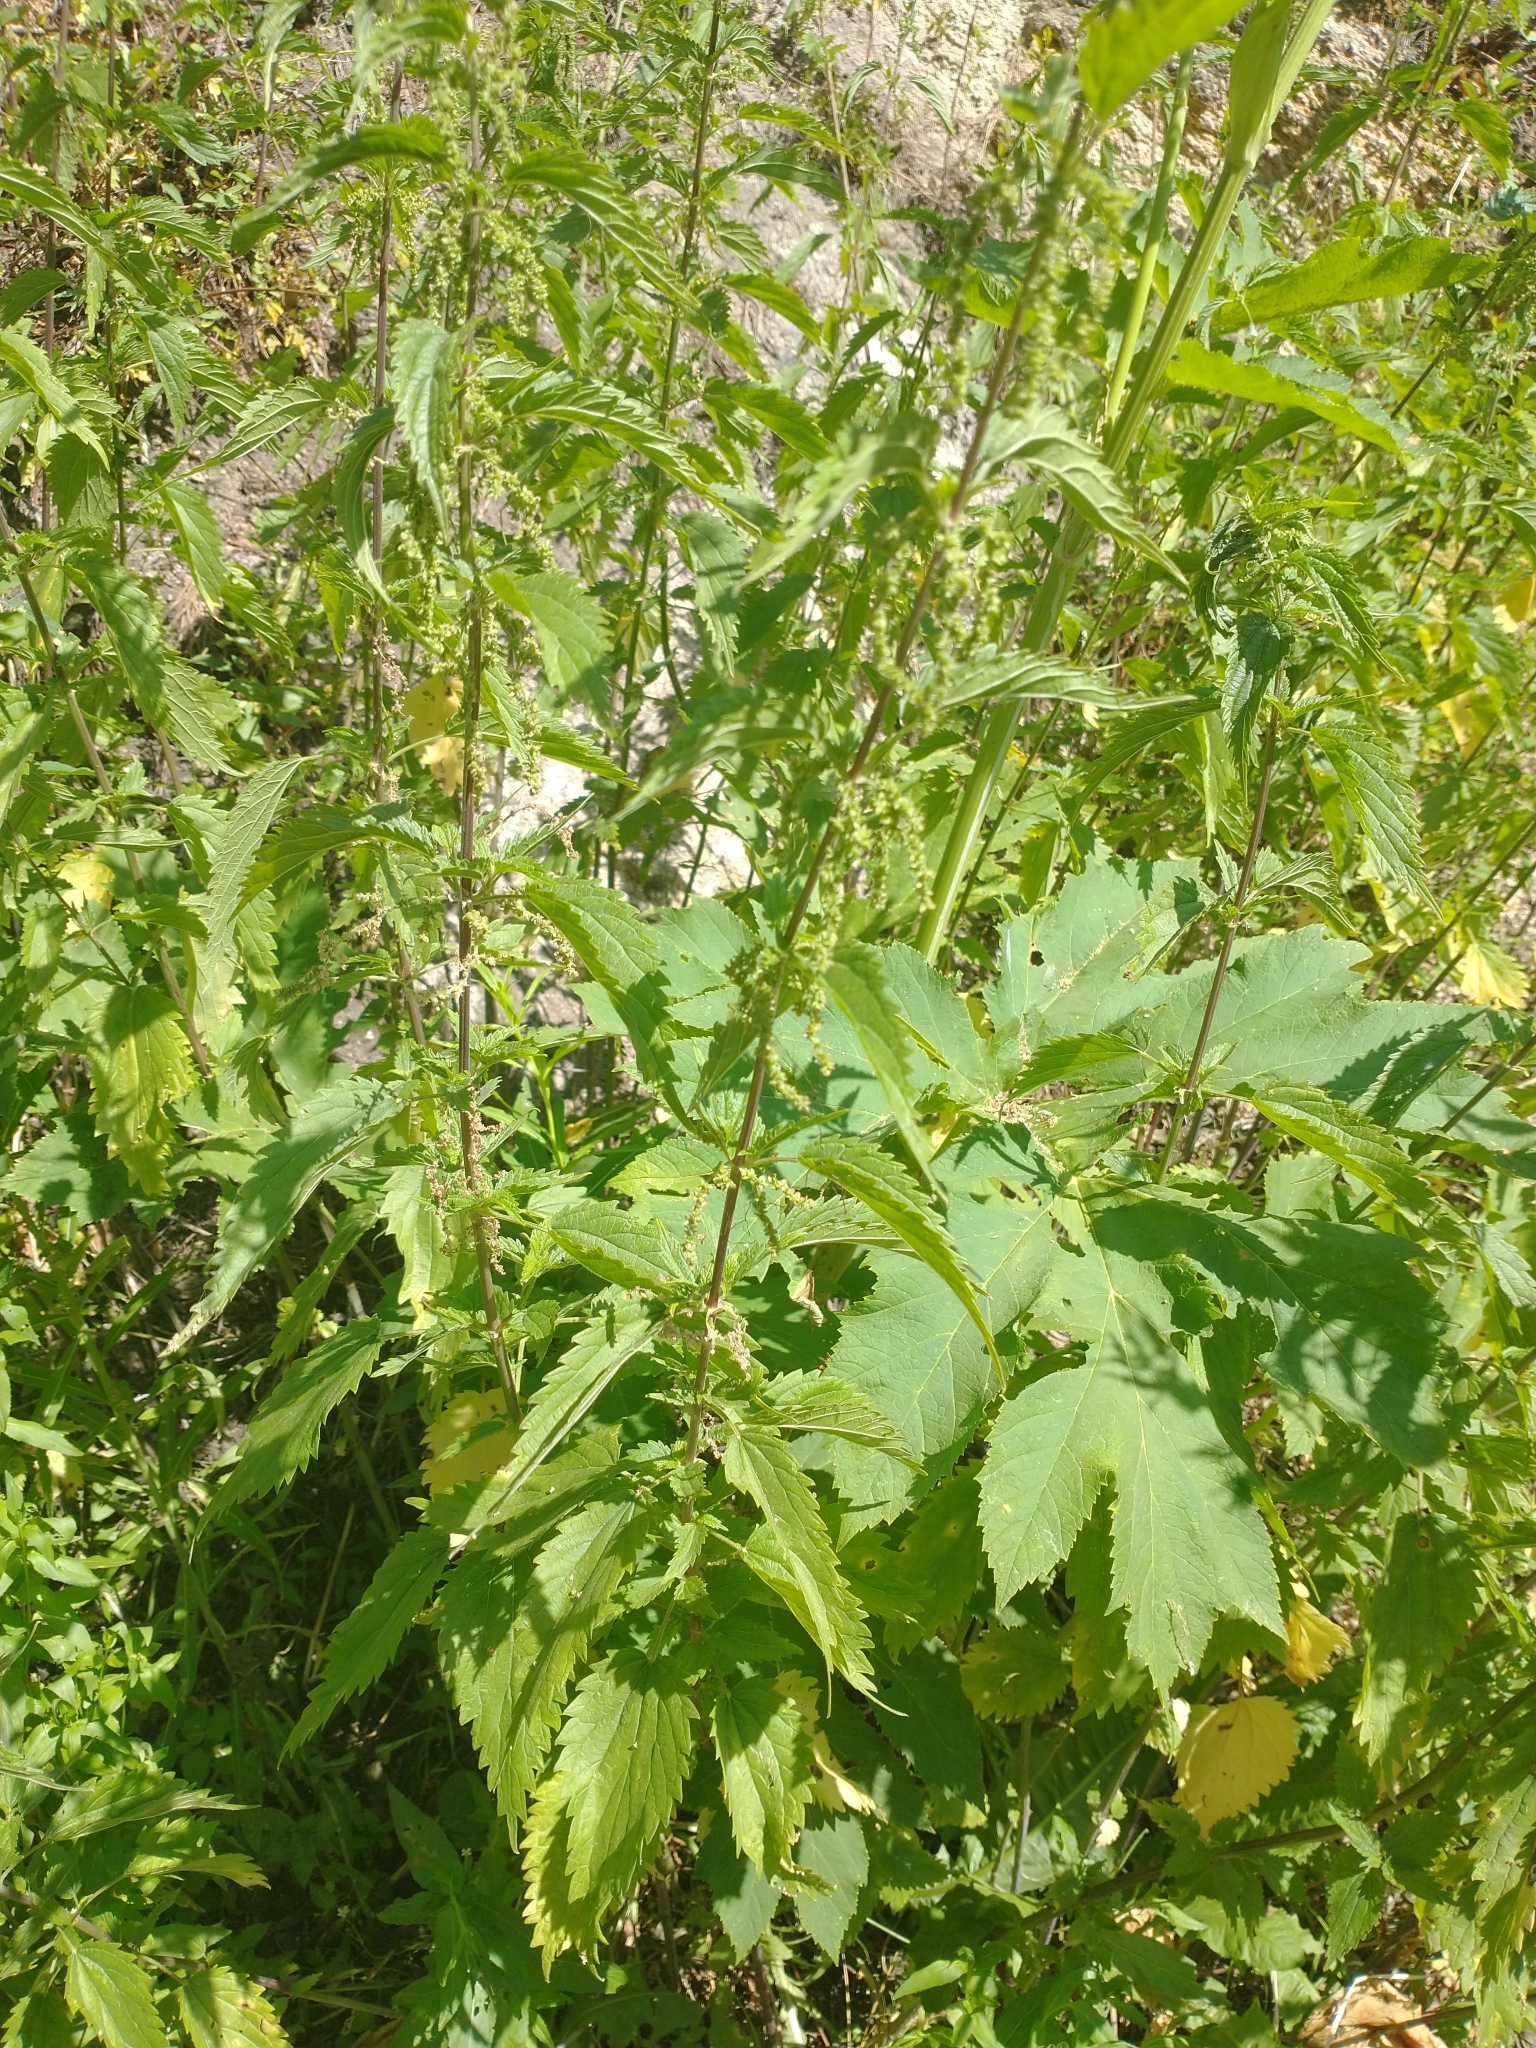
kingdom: Plantae
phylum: Tracheophyta
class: Magnoliopsida
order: Rosales
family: Urticaceae
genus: Urtica
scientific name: Urtica gracilis
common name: Slender stinging nettle
